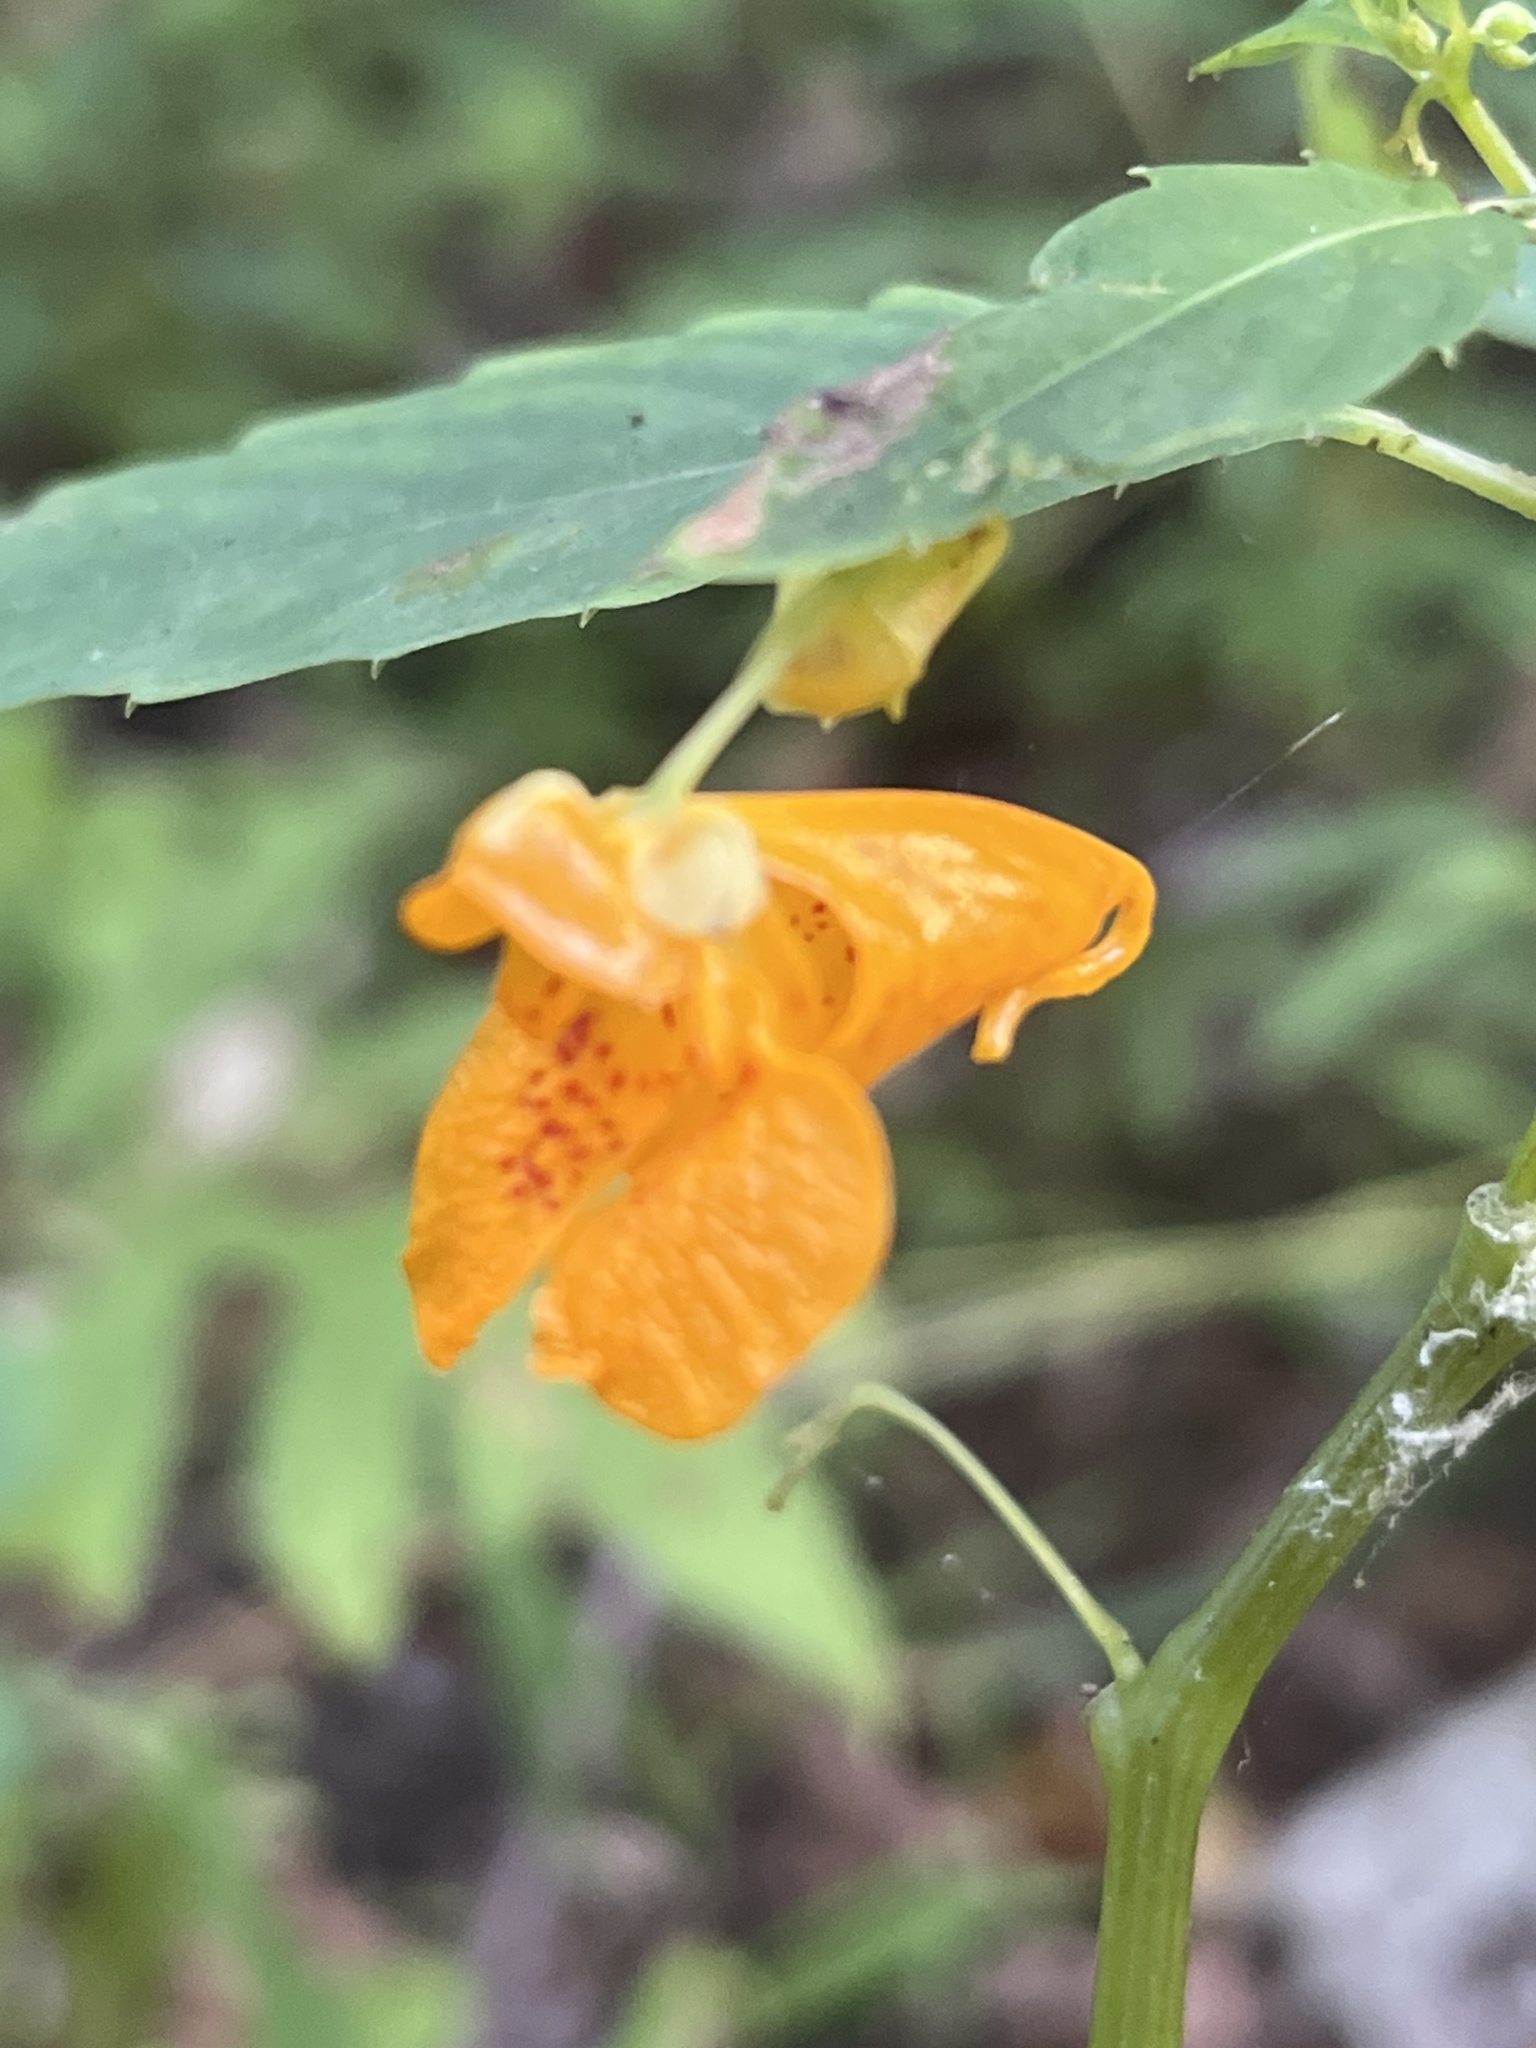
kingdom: Plantae
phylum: Tracheophyta
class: Magnoliopsida
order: Ericales
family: Balsaminaceae
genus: Impatiens
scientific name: Impatiens capensis
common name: Orange balsam
